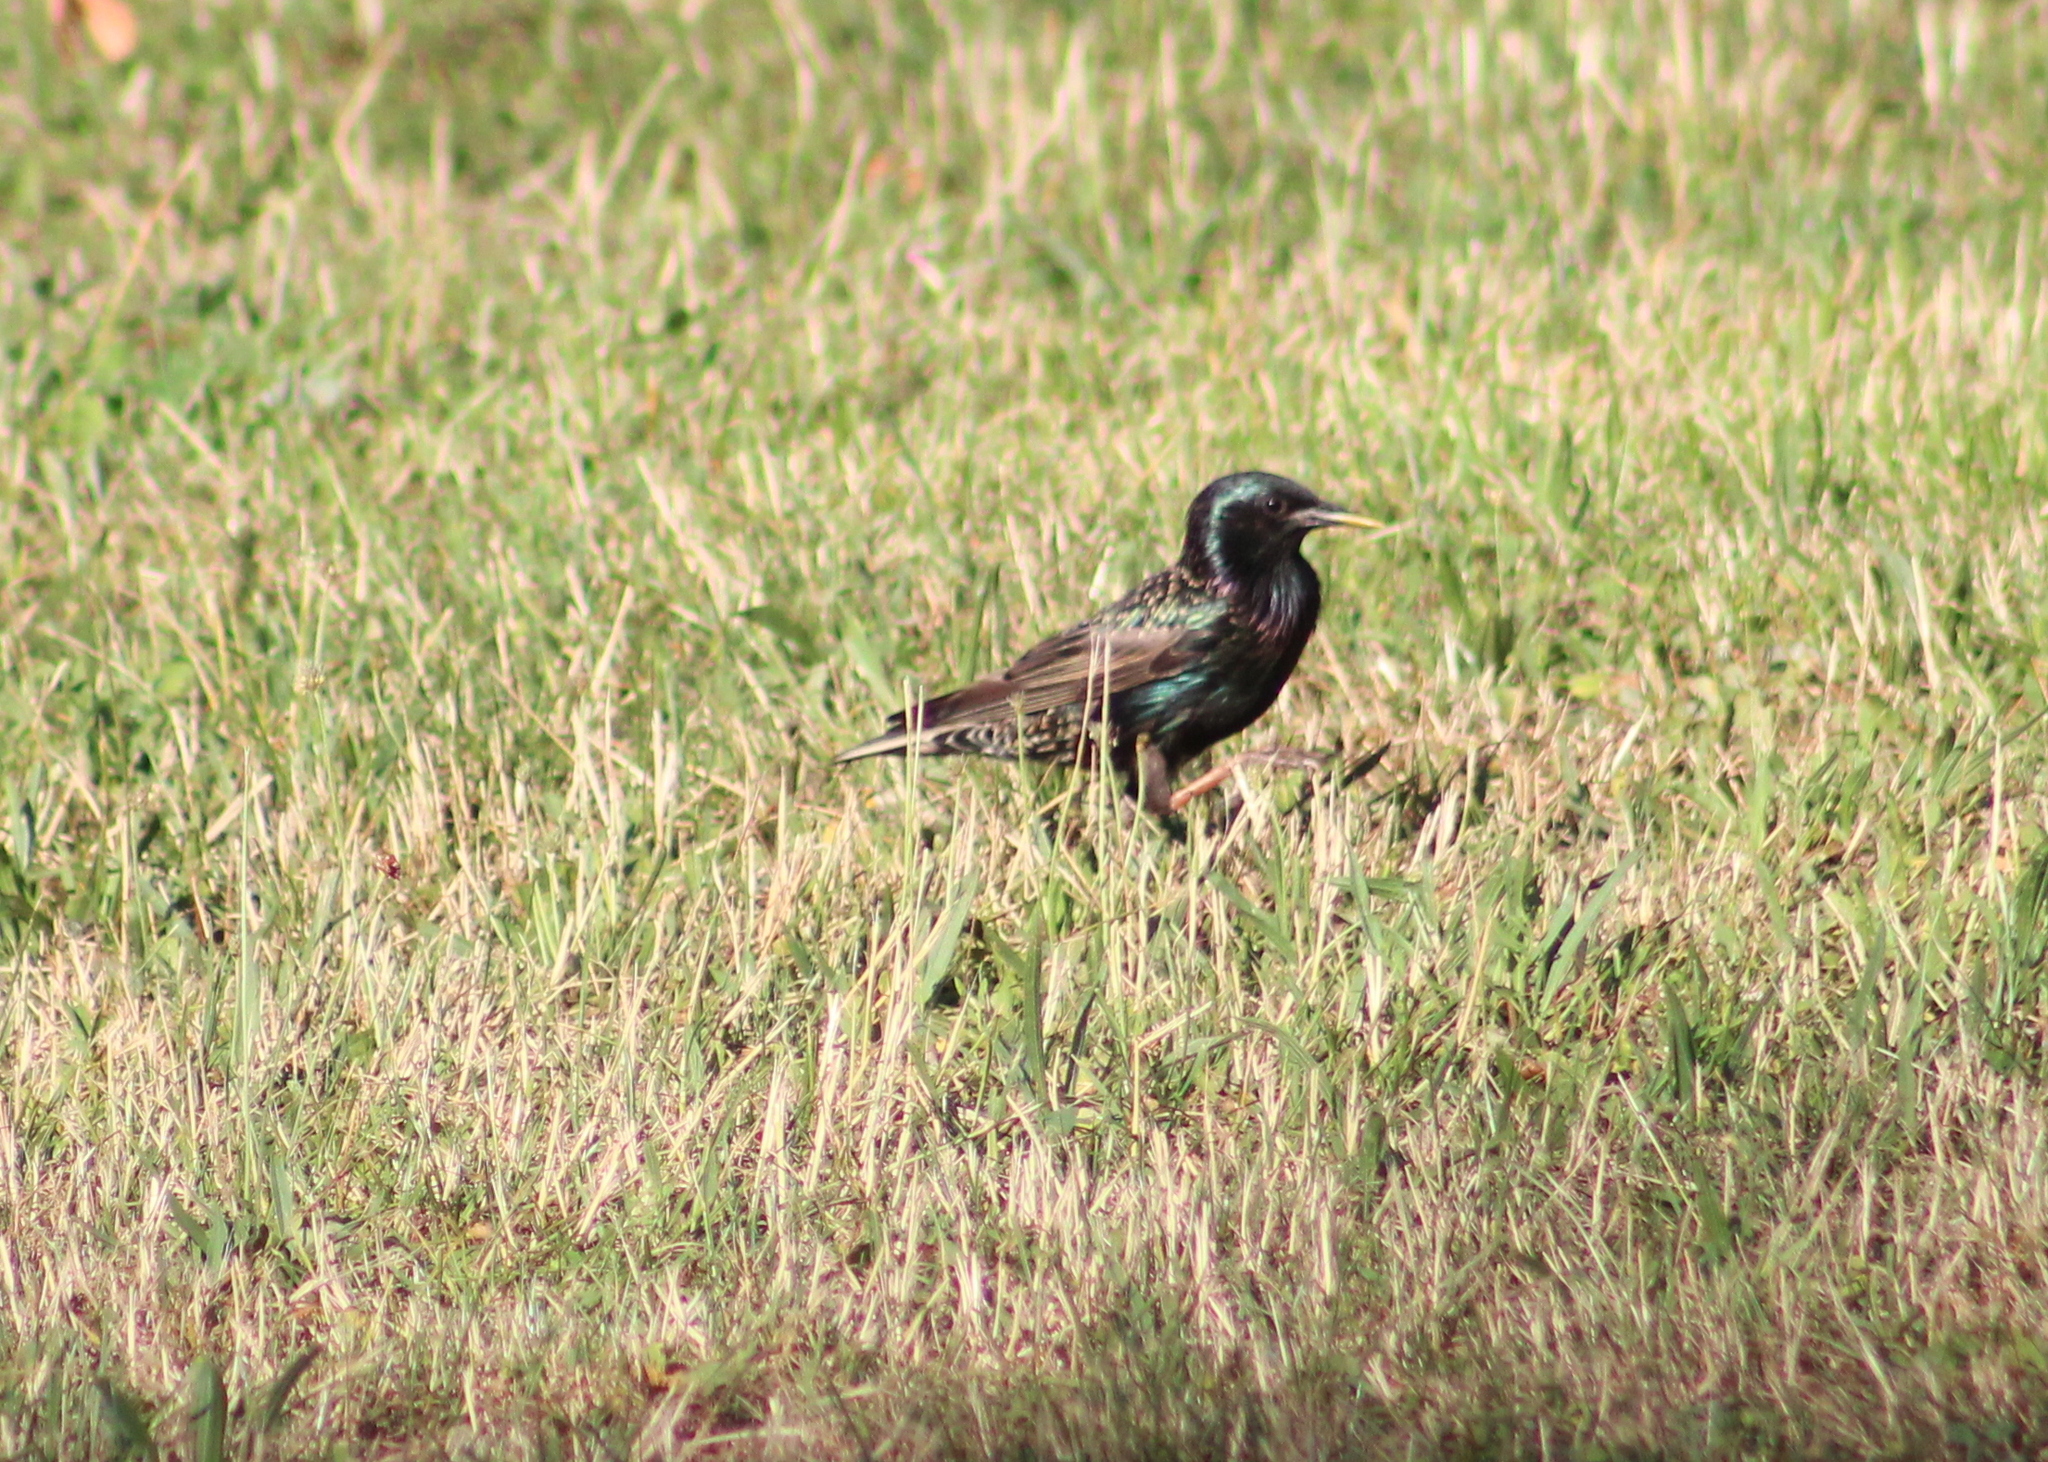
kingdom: Animalia
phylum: Chordata
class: Aves
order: Passeriformes
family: Sturnidae
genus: Sturnus
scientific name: Sturnus vulgaris
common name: Common starling
